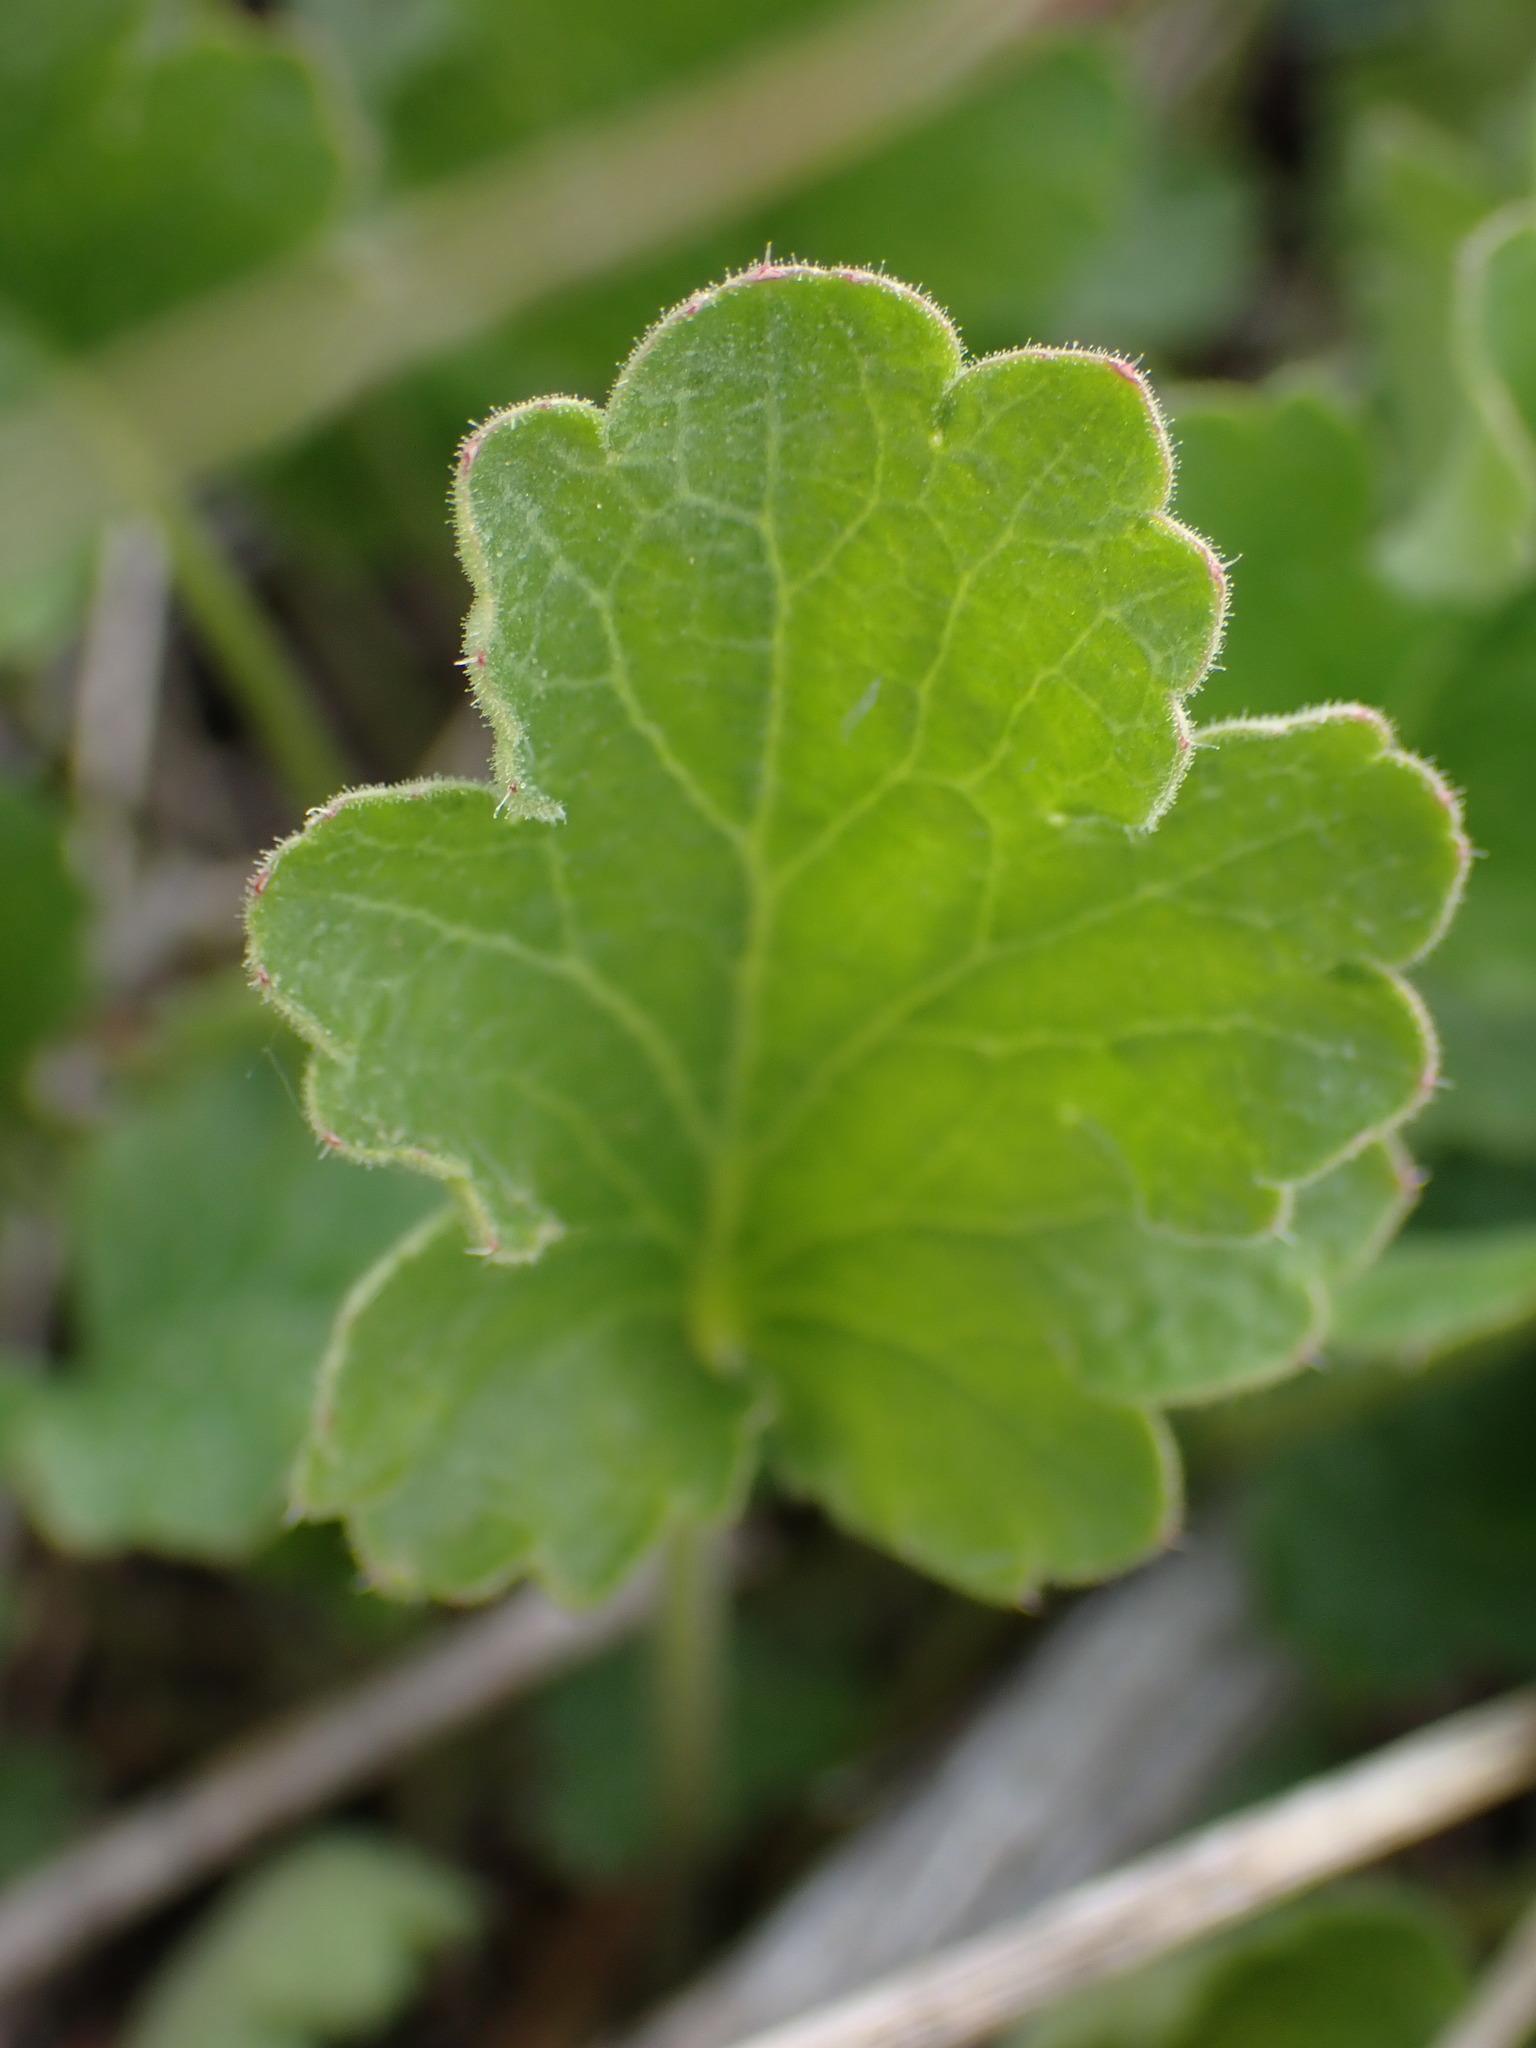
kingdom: Plantae
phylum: Tracheophyta
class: Magnoliopsida
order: Saxifragales
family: Saxifragaceae
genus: Heuchera
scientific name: Heuchera cylindrica
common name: Mat alumroot
